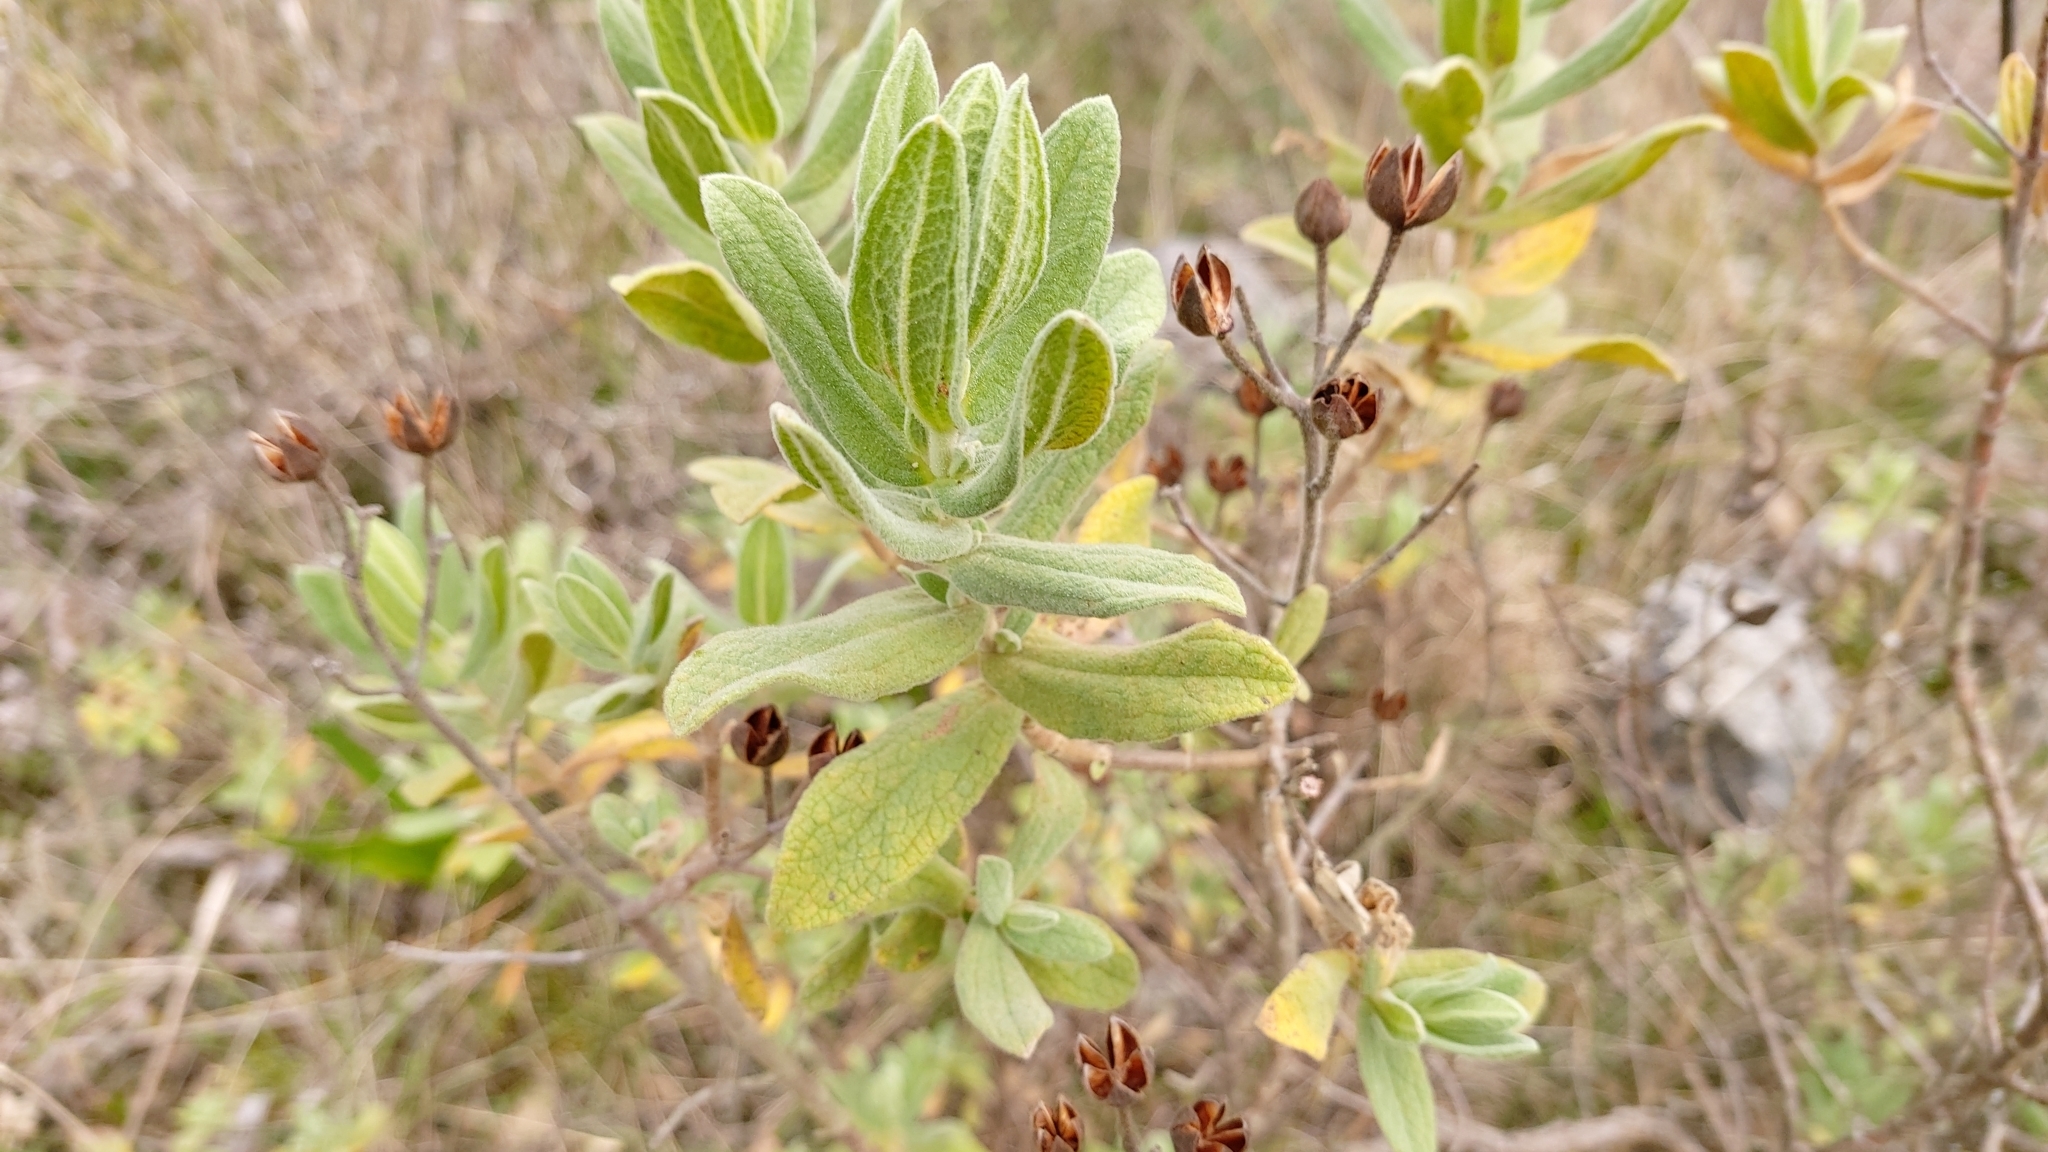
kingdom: Plantae
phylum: Tracheophyta
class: Magnoliopsida
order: Malvales
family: Cistaceae
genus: Cistus
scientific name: Cistus albidus
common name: White-leaf rock-rose
